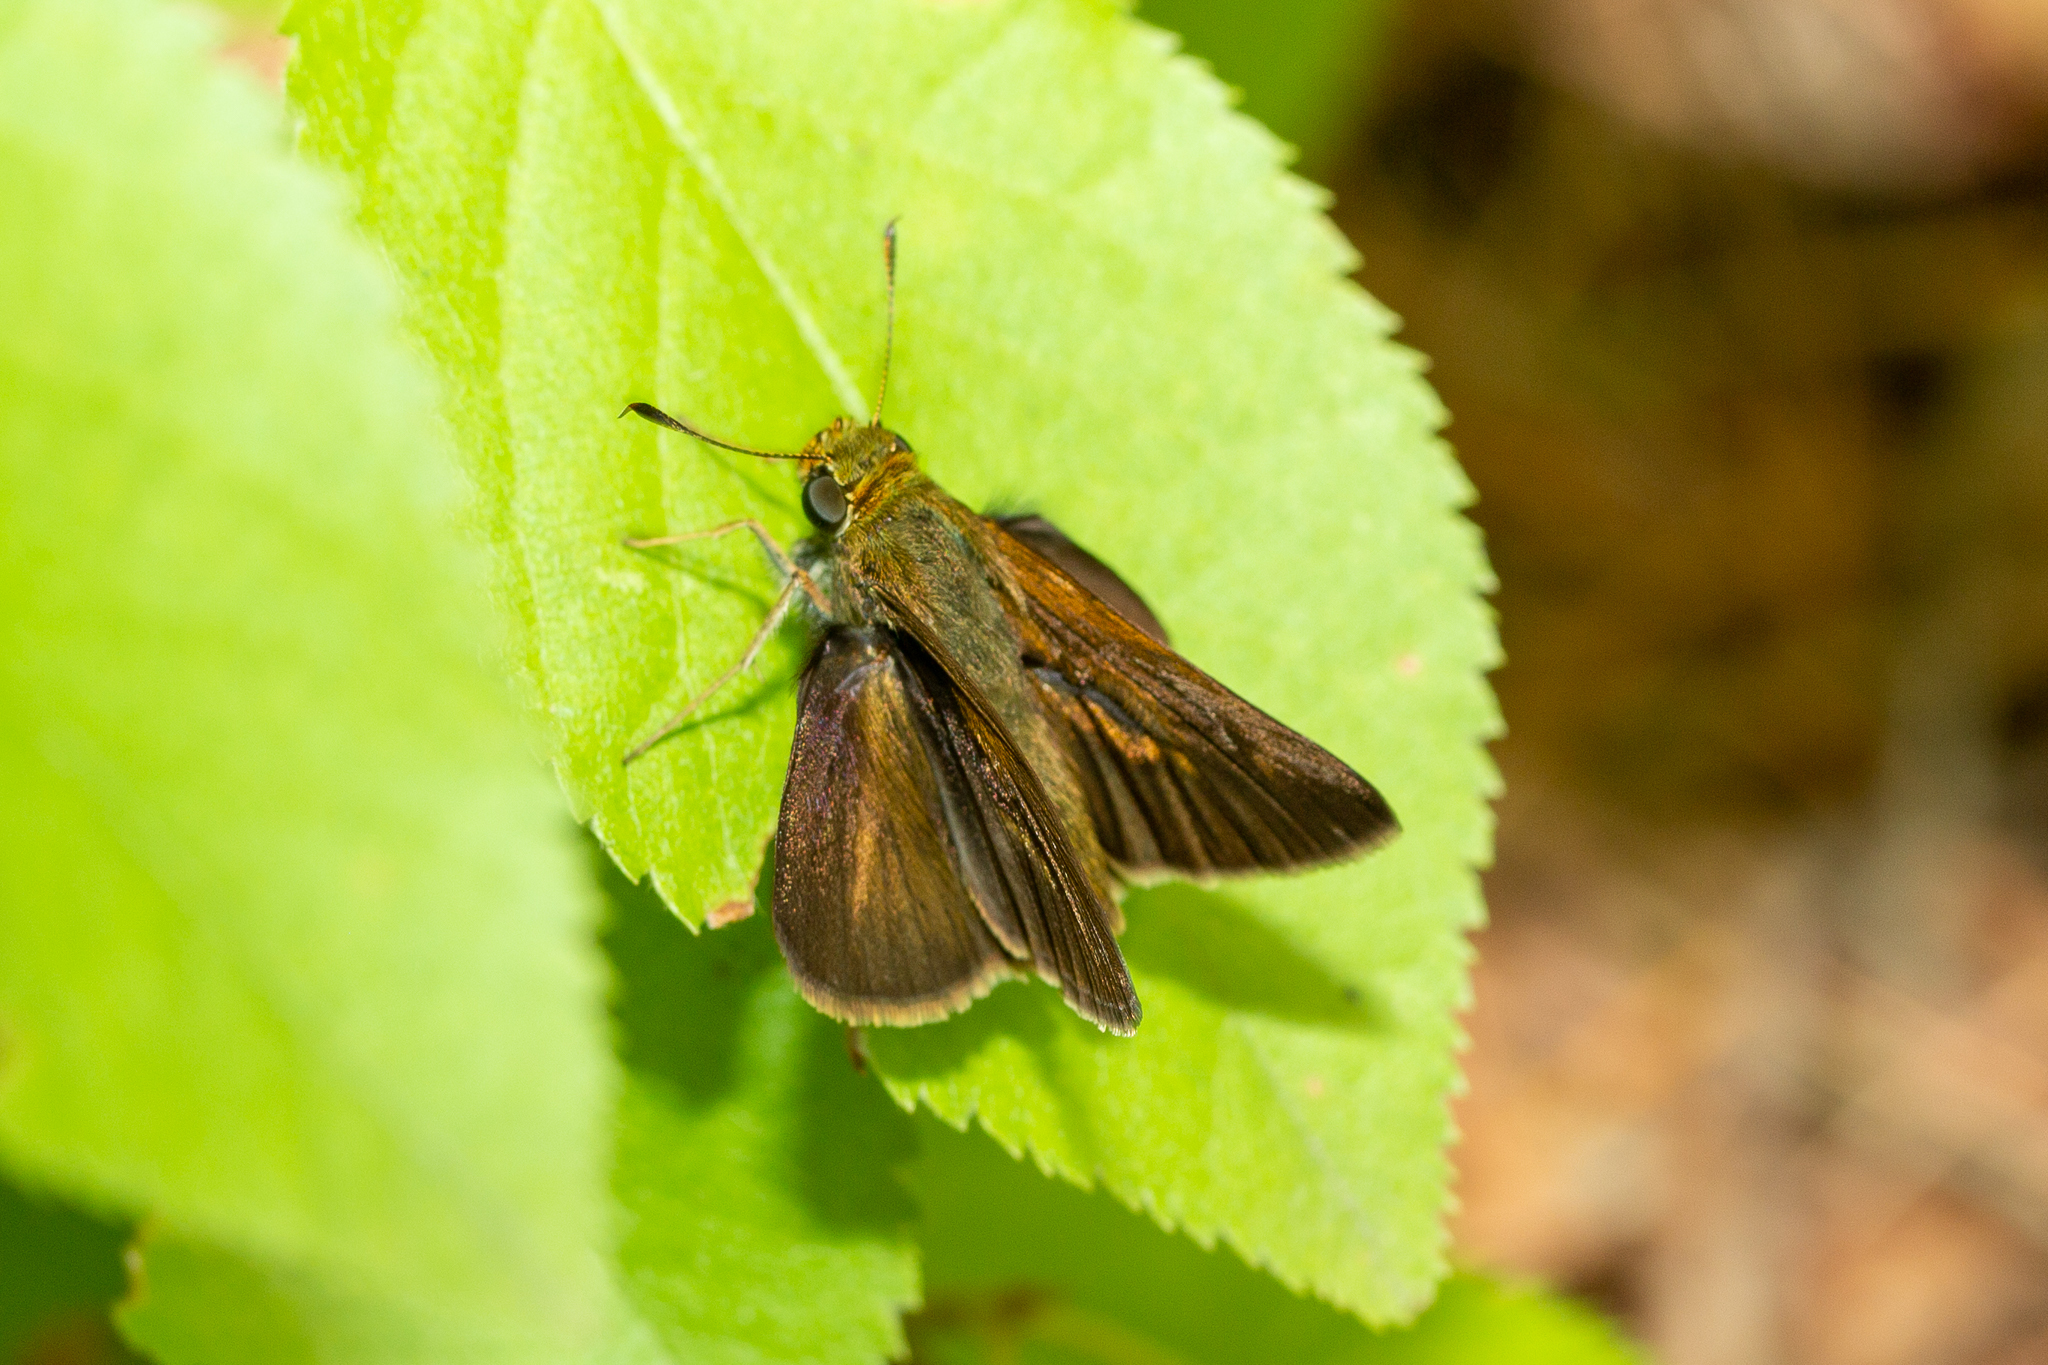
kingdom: Animalia
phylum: Arthropoda
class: Insecta
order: Lepidoptera
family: Hesperiidae
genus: Euphyes
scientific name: Euphyes vestris
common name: Dun skipper
